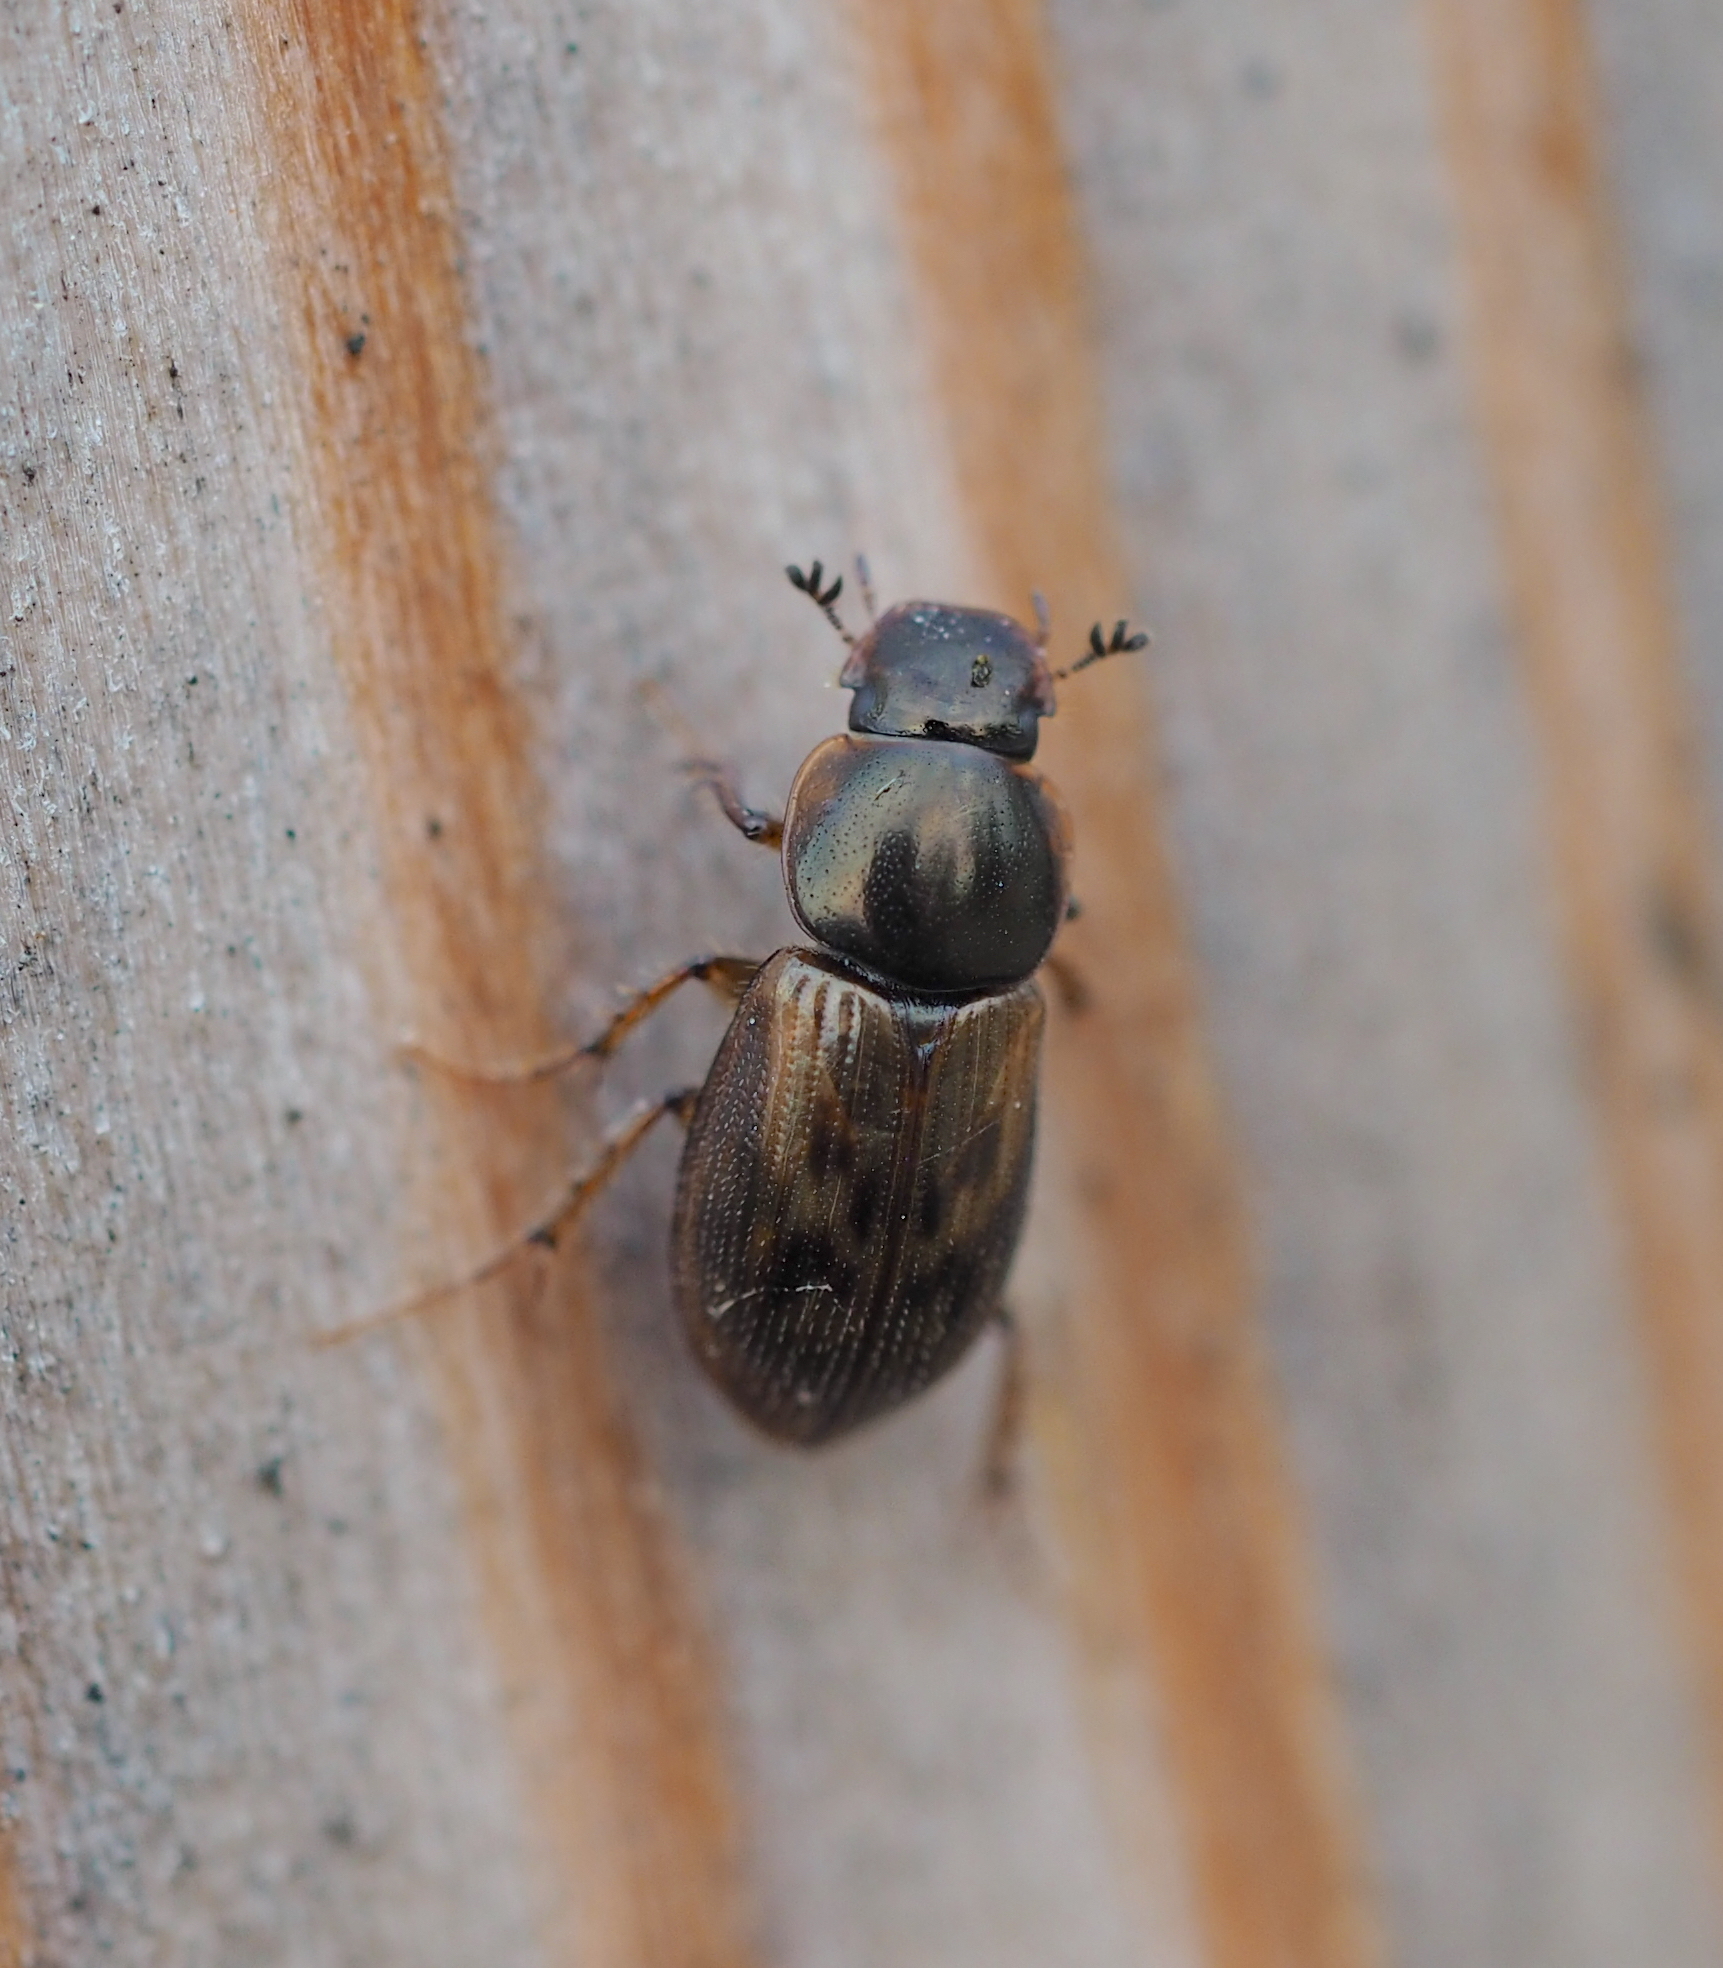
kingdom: Animalia
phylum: Arthropoda
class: Insecta
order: Coleoptera
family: Scarabaeidae
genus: Nimbus
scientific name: Nimbus obliteratus
